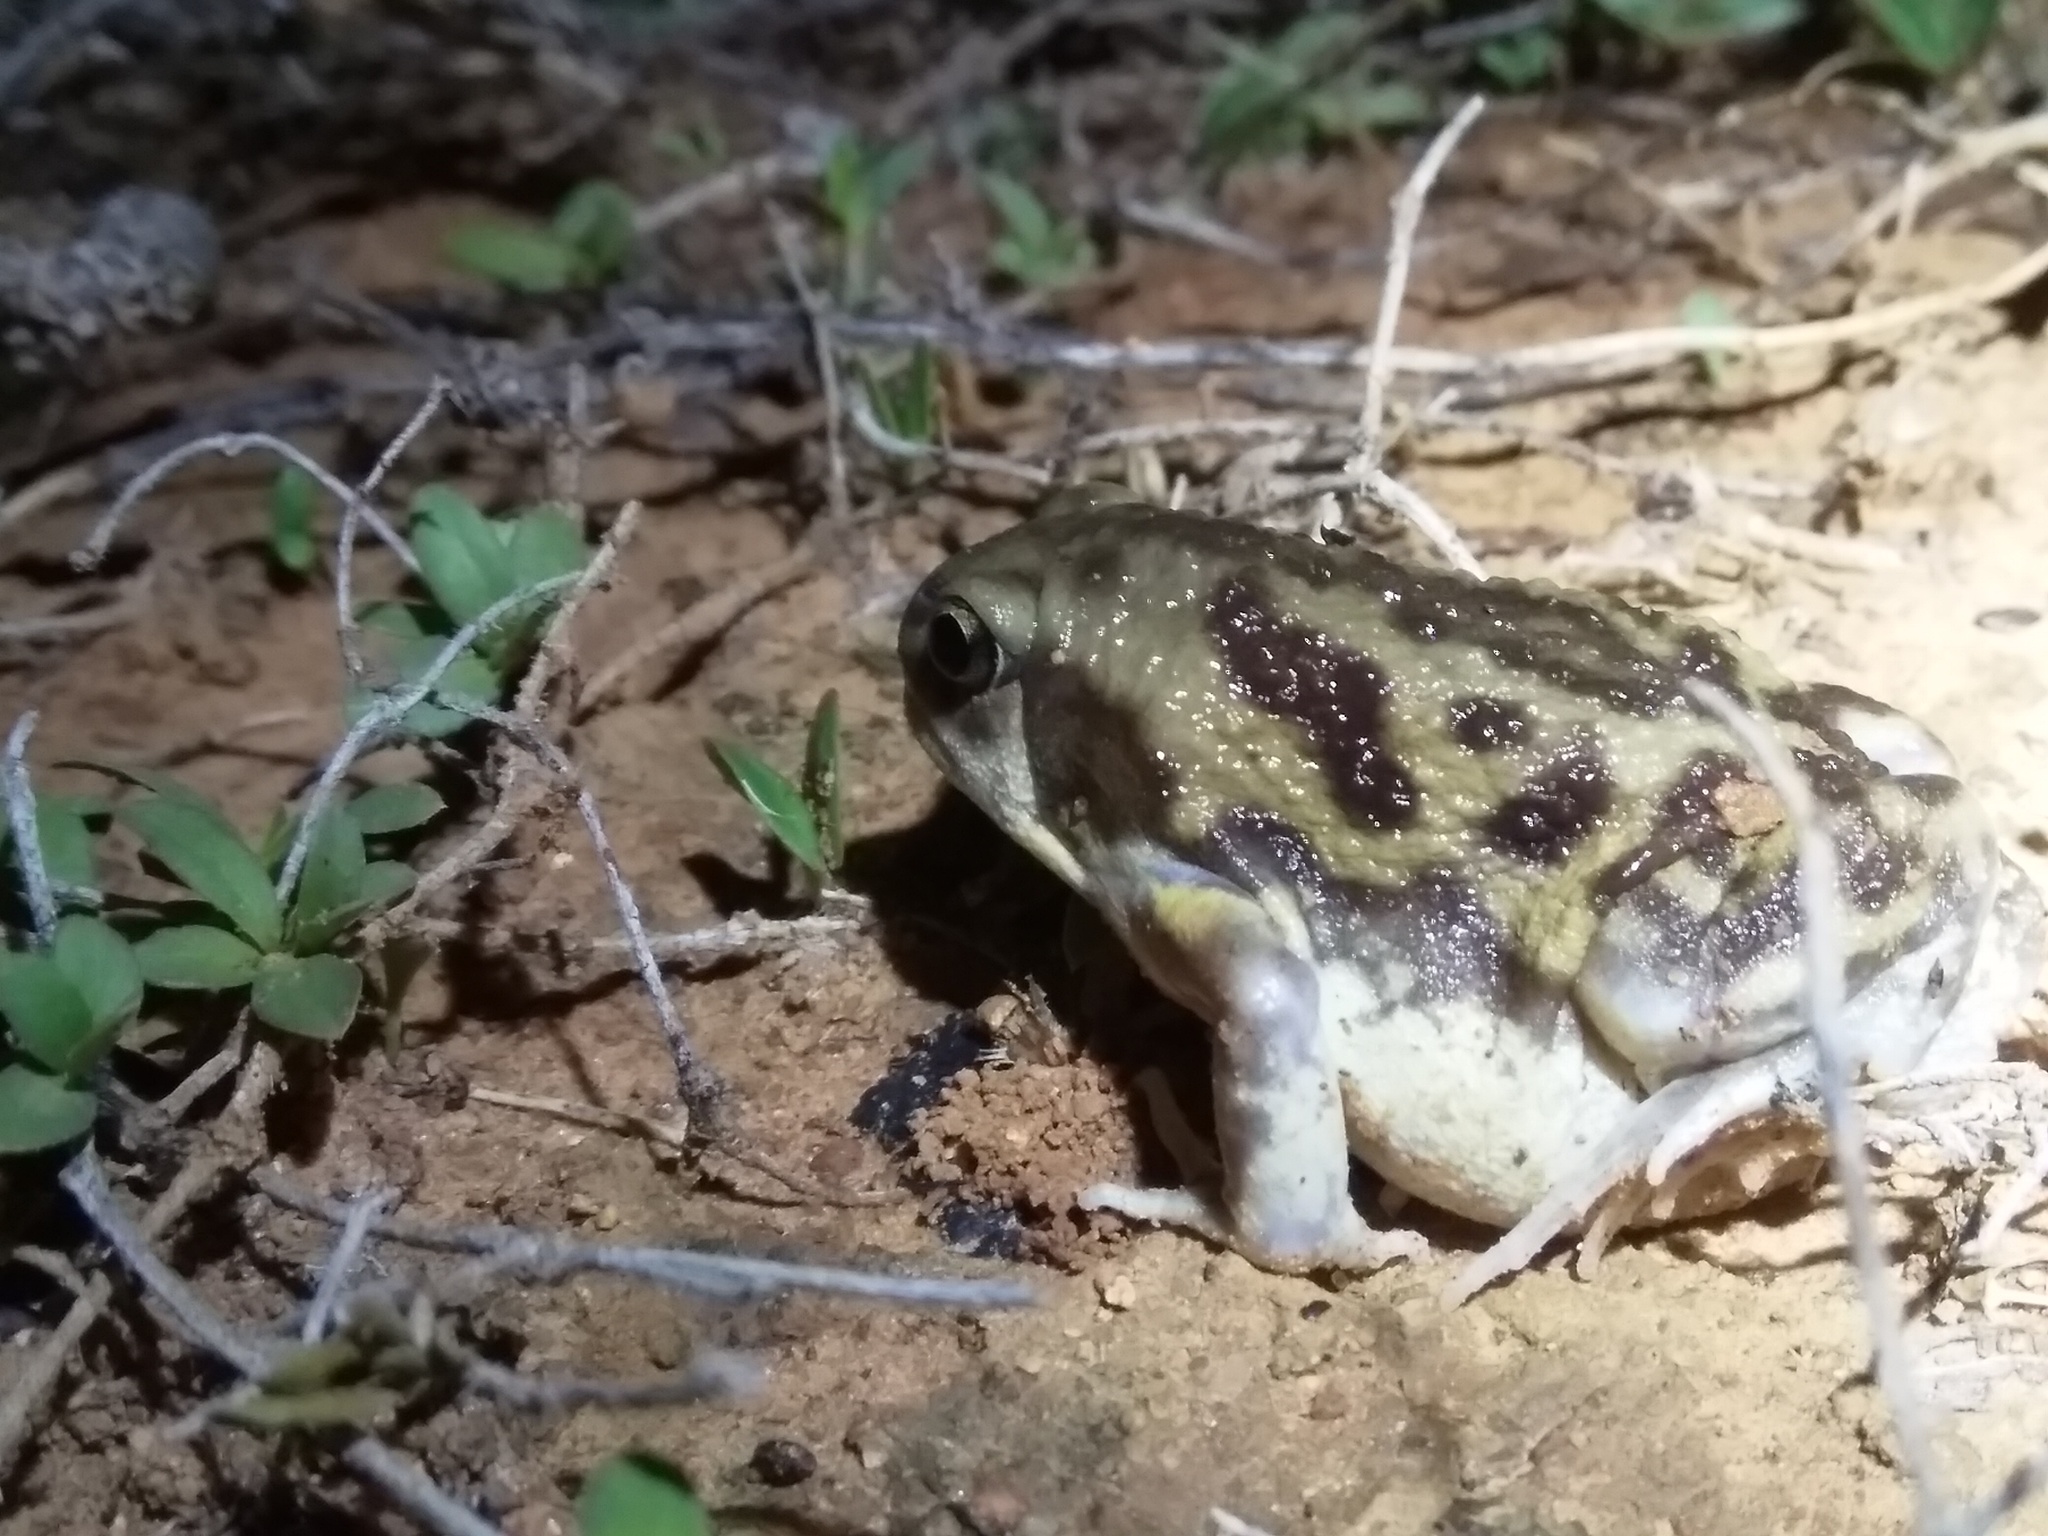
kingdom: Animalia
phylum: Chordata
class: Amphibia
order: Anura
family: Microhylidae
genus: Uperodon
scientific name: Uperodon systoma
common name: Balloon frog
